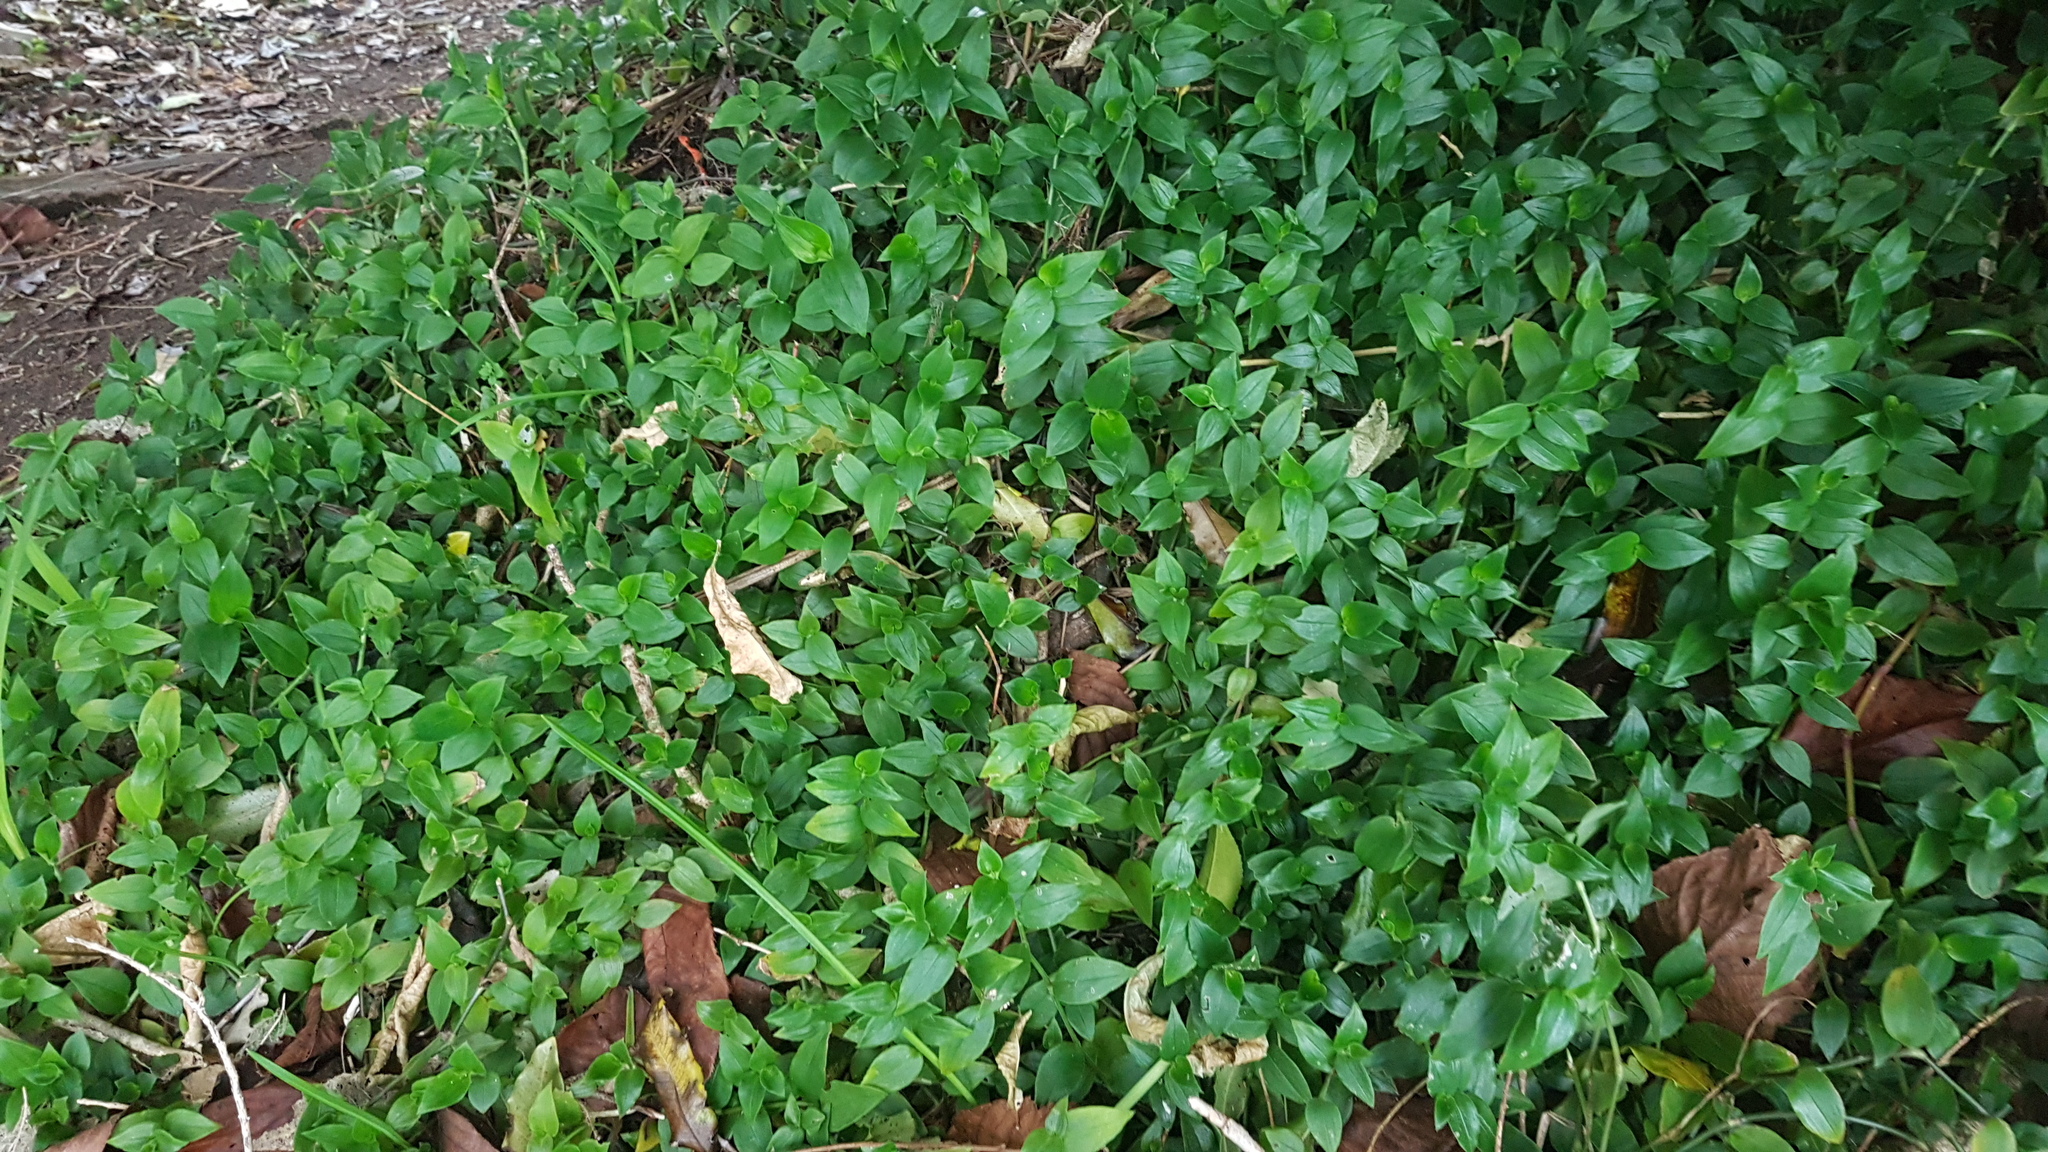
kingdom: Plantae
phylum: Tracheophyta
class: Liliopsida
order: Commelinales
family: Commelinaceae
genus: Tradescantia
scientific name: Tradescantia fluminensis
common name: Wandering-jew
